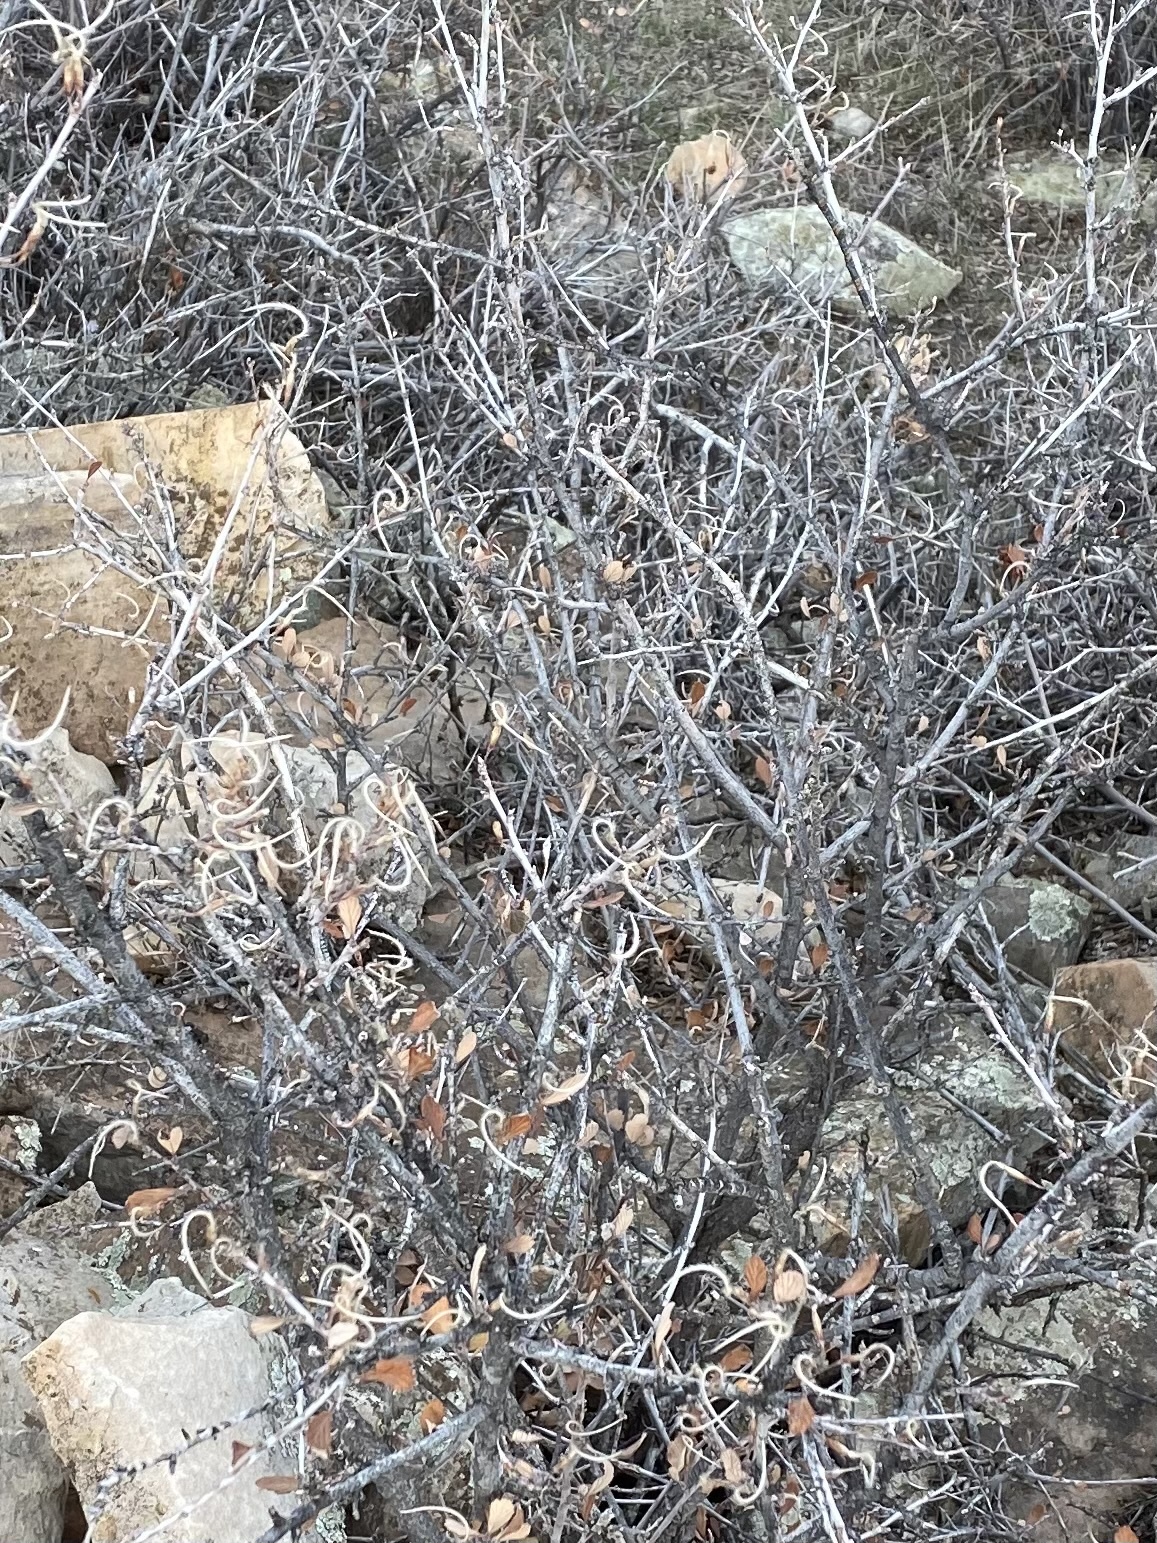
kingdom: Plantae
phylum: Tracheophyta
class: Magnoliopsida
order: Rosales
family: Rosaceae
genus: Cercocarpus
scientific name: Cercocarpus montanus
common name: Alder-leaf cercocarpus
